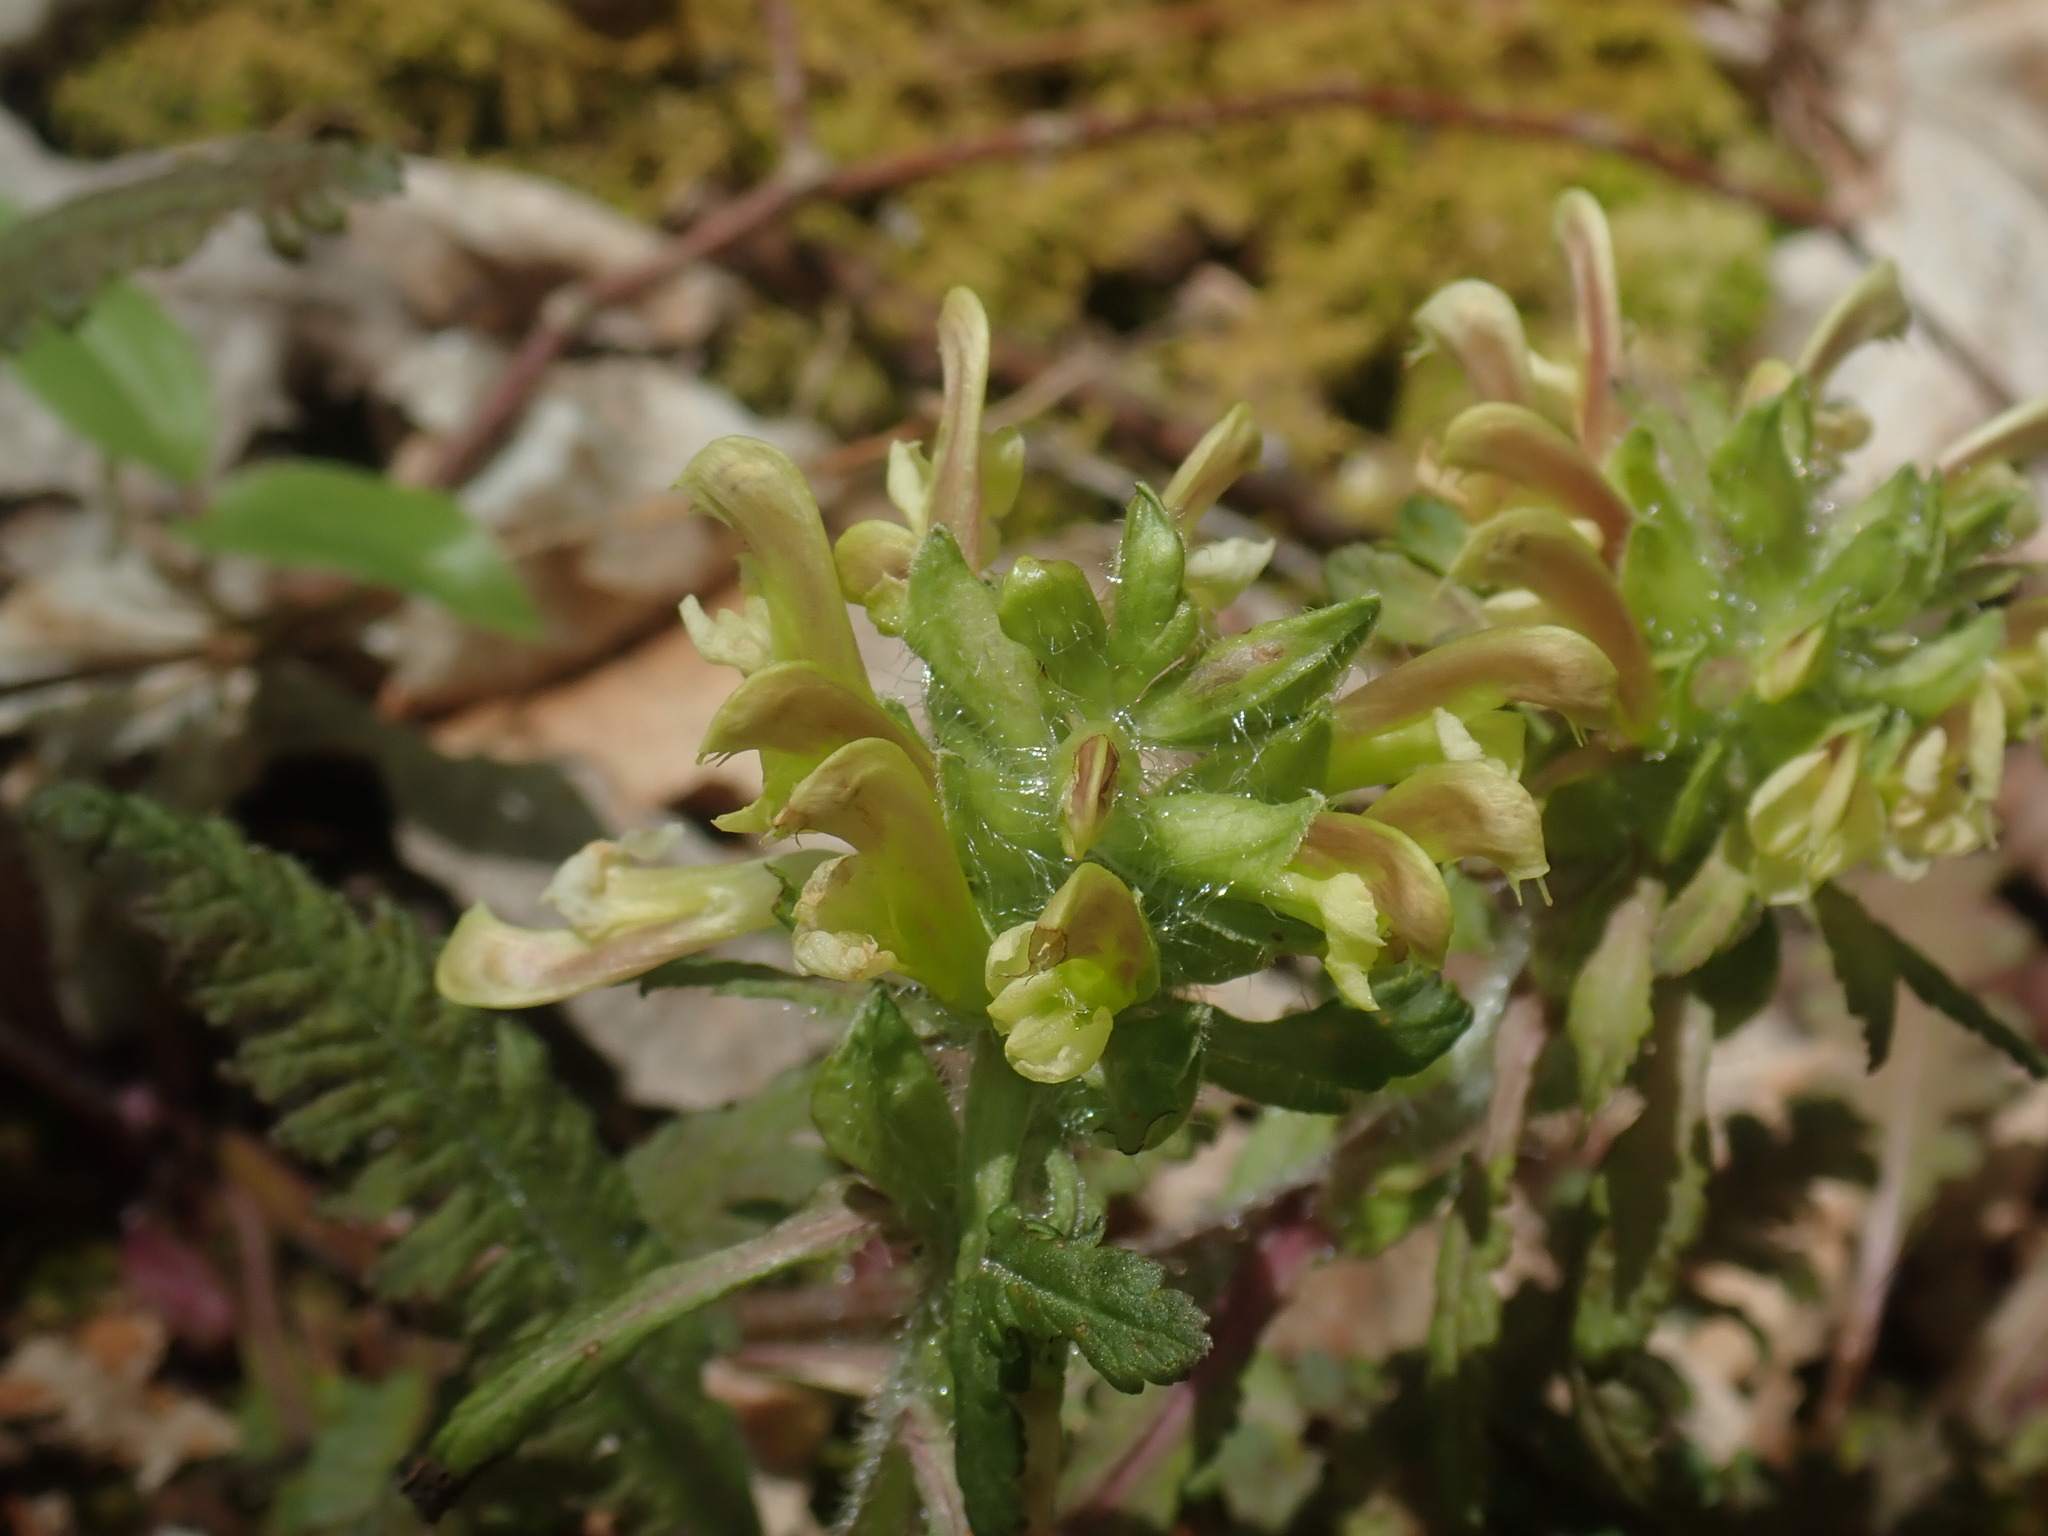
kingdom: Plantae
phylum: Tracheophyta
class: Magnoliopsida
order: Lamiales
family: Orobanchaceae
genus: Pedicularis
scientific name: Pedicularis canadensis
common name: Early lousewort
